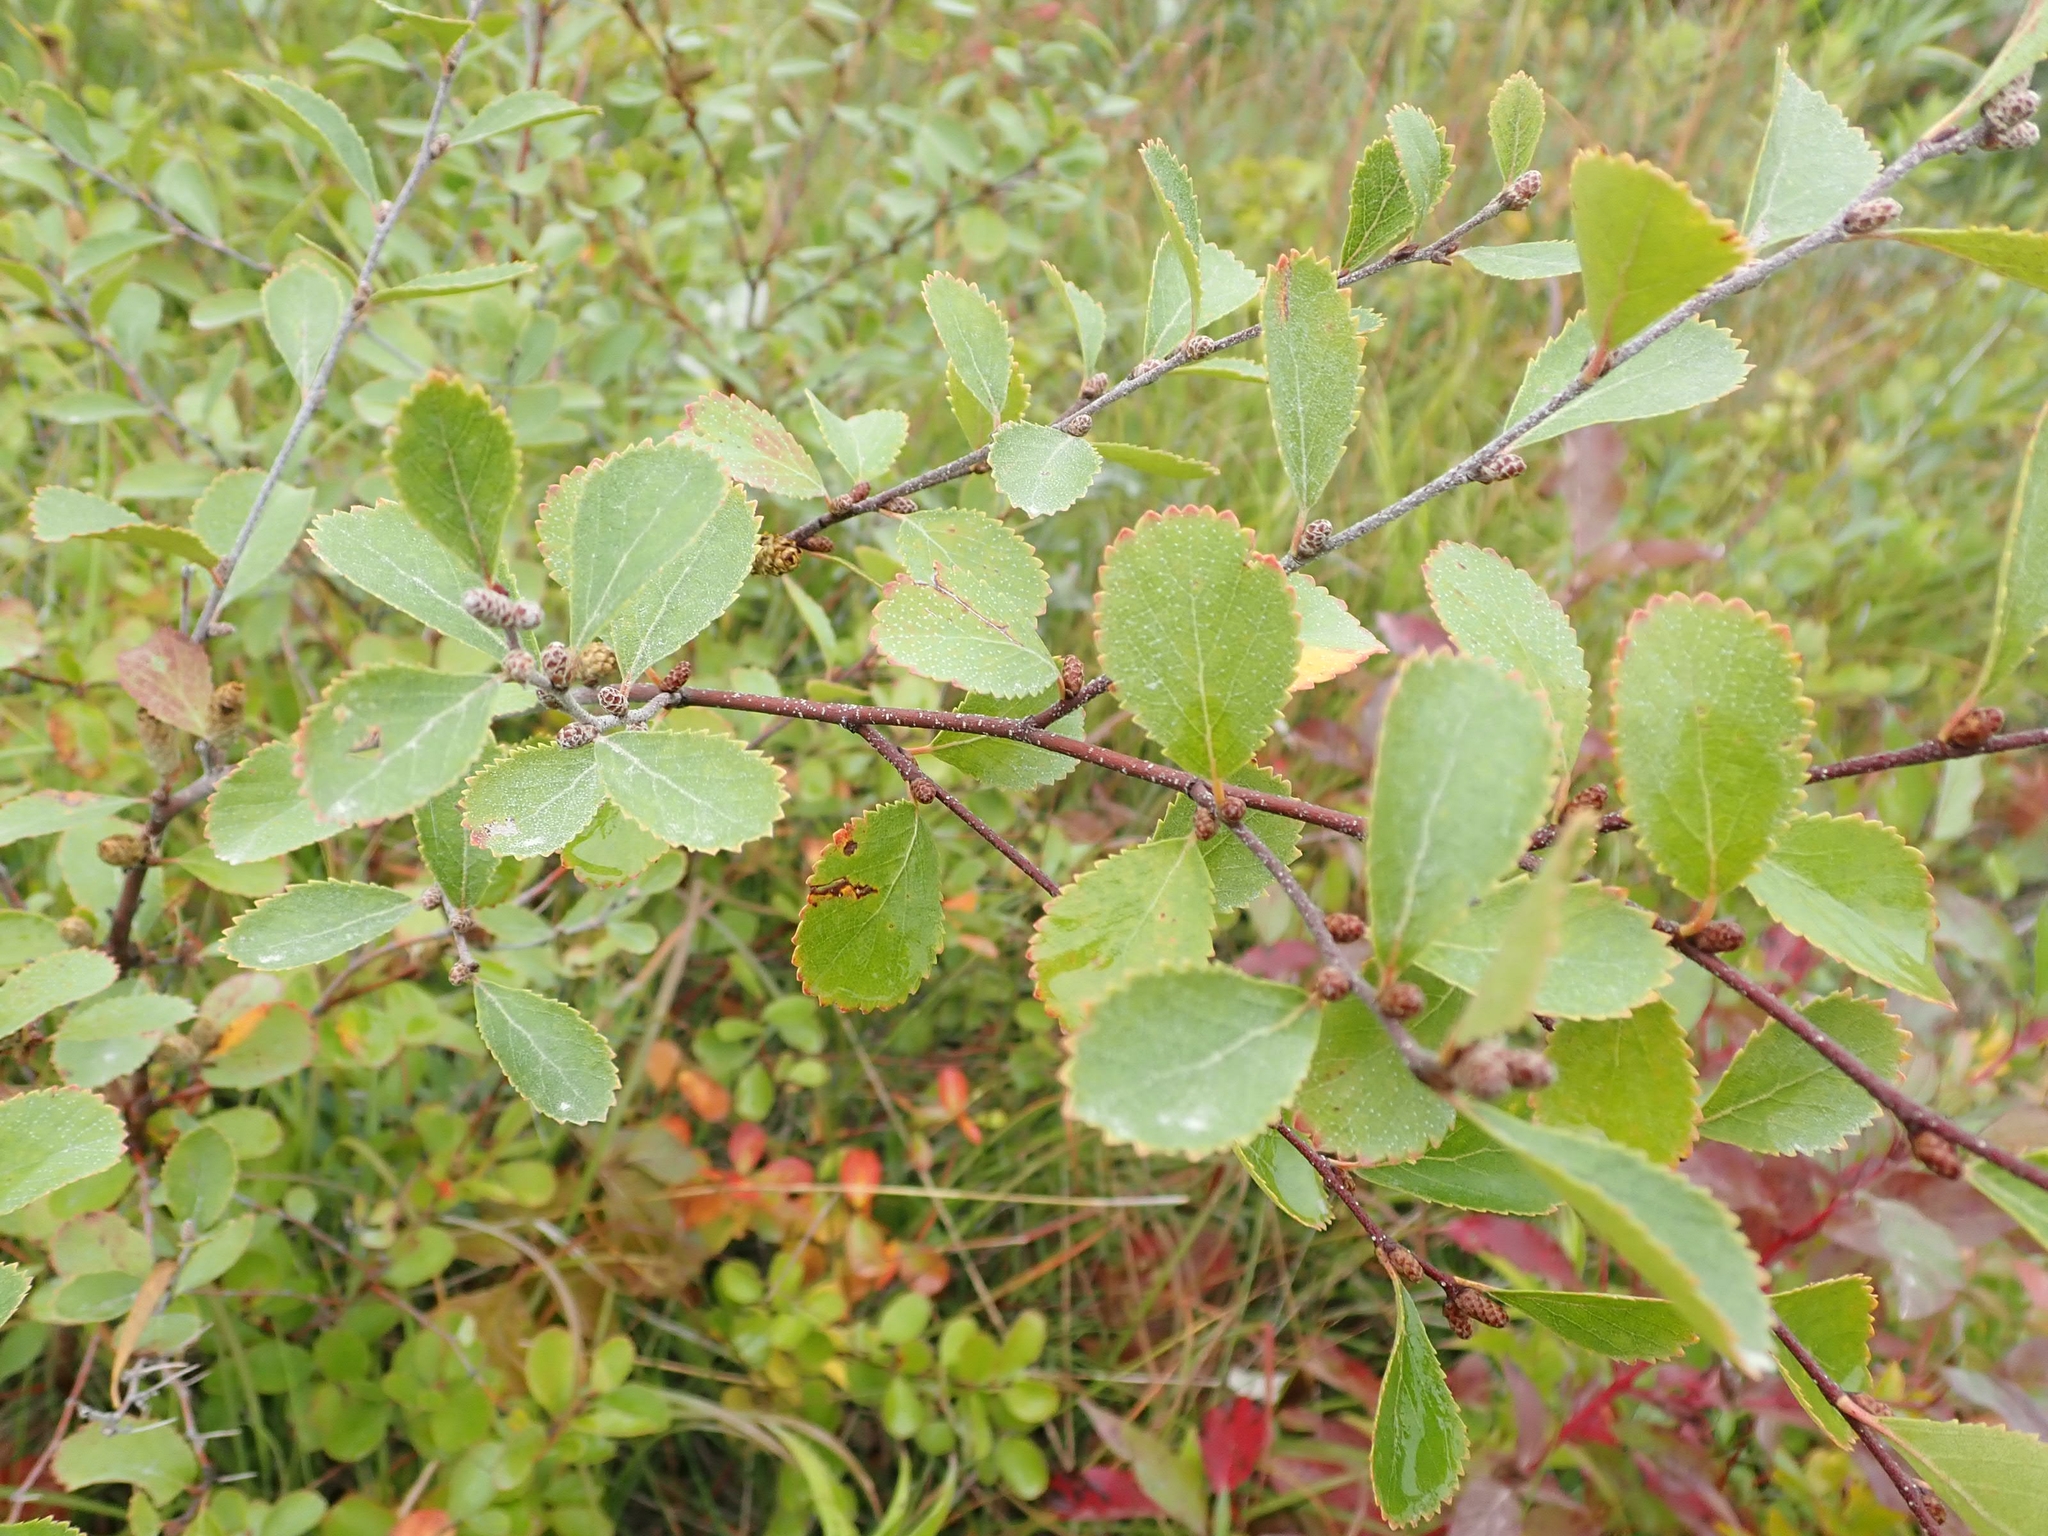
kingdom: Plantae
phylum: Tracheophyta
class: Magnoliopsida
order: Fagales
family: Betulaceae
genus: Betula
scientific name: Betula pumila
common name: Bog birch
